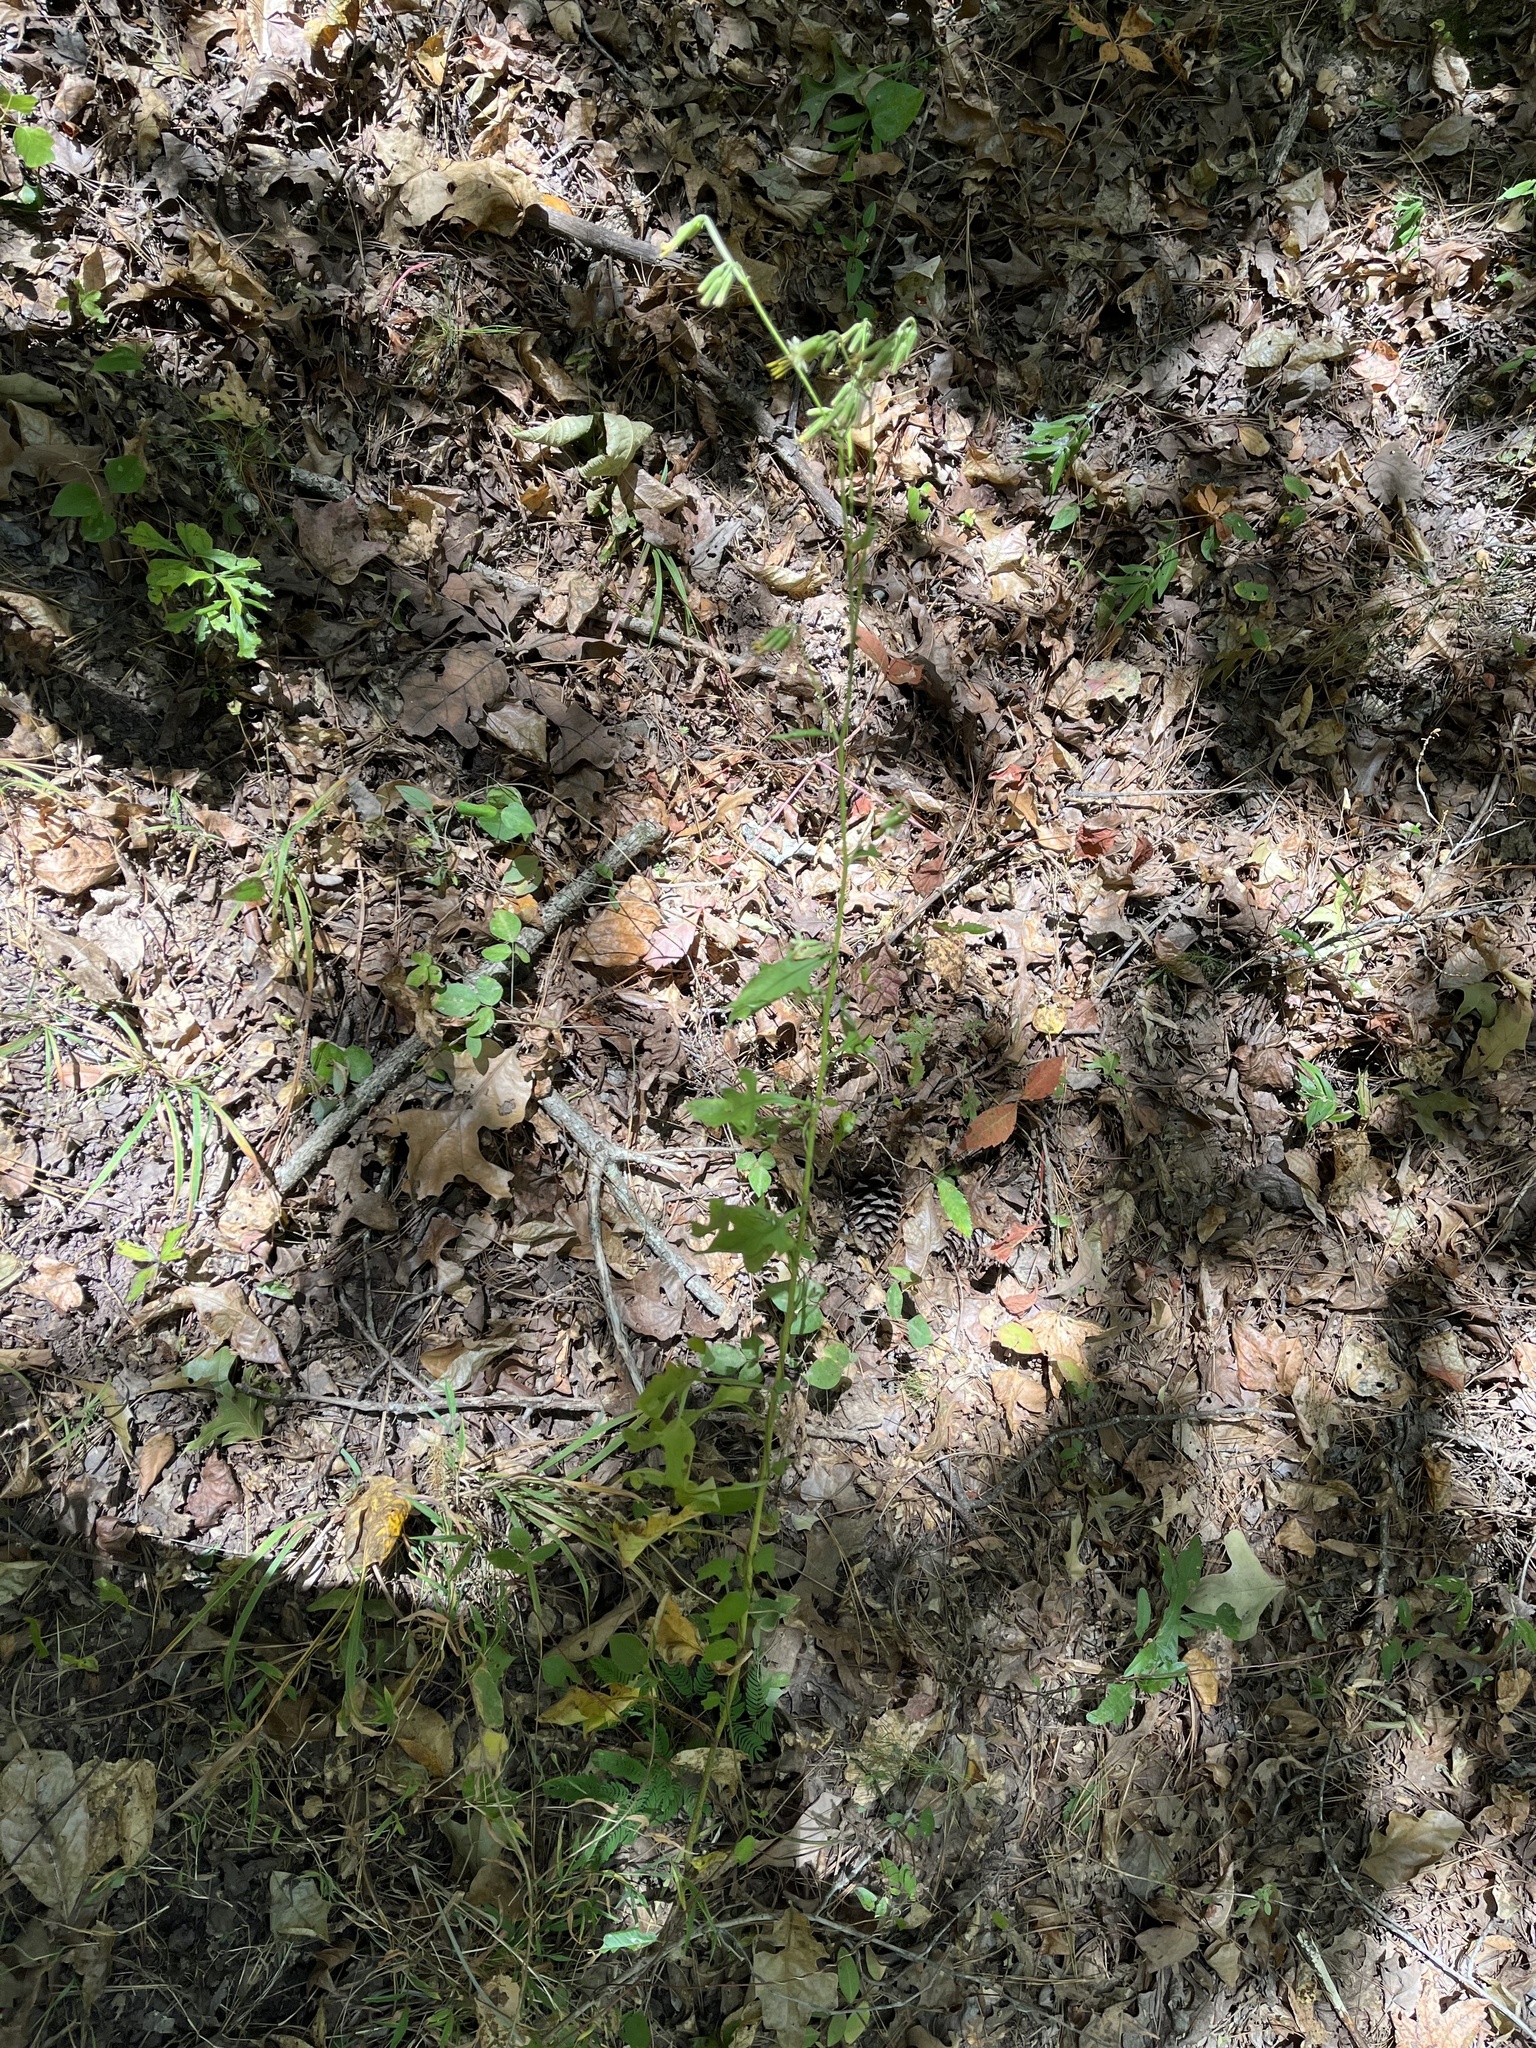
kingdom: Plantae
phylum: Tracheophyta
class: Magnoliopsida
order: Asterales
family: Asteraceae
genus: Nabalus
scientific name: Nabalus altissima
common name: Tall rattlesnakeroot
